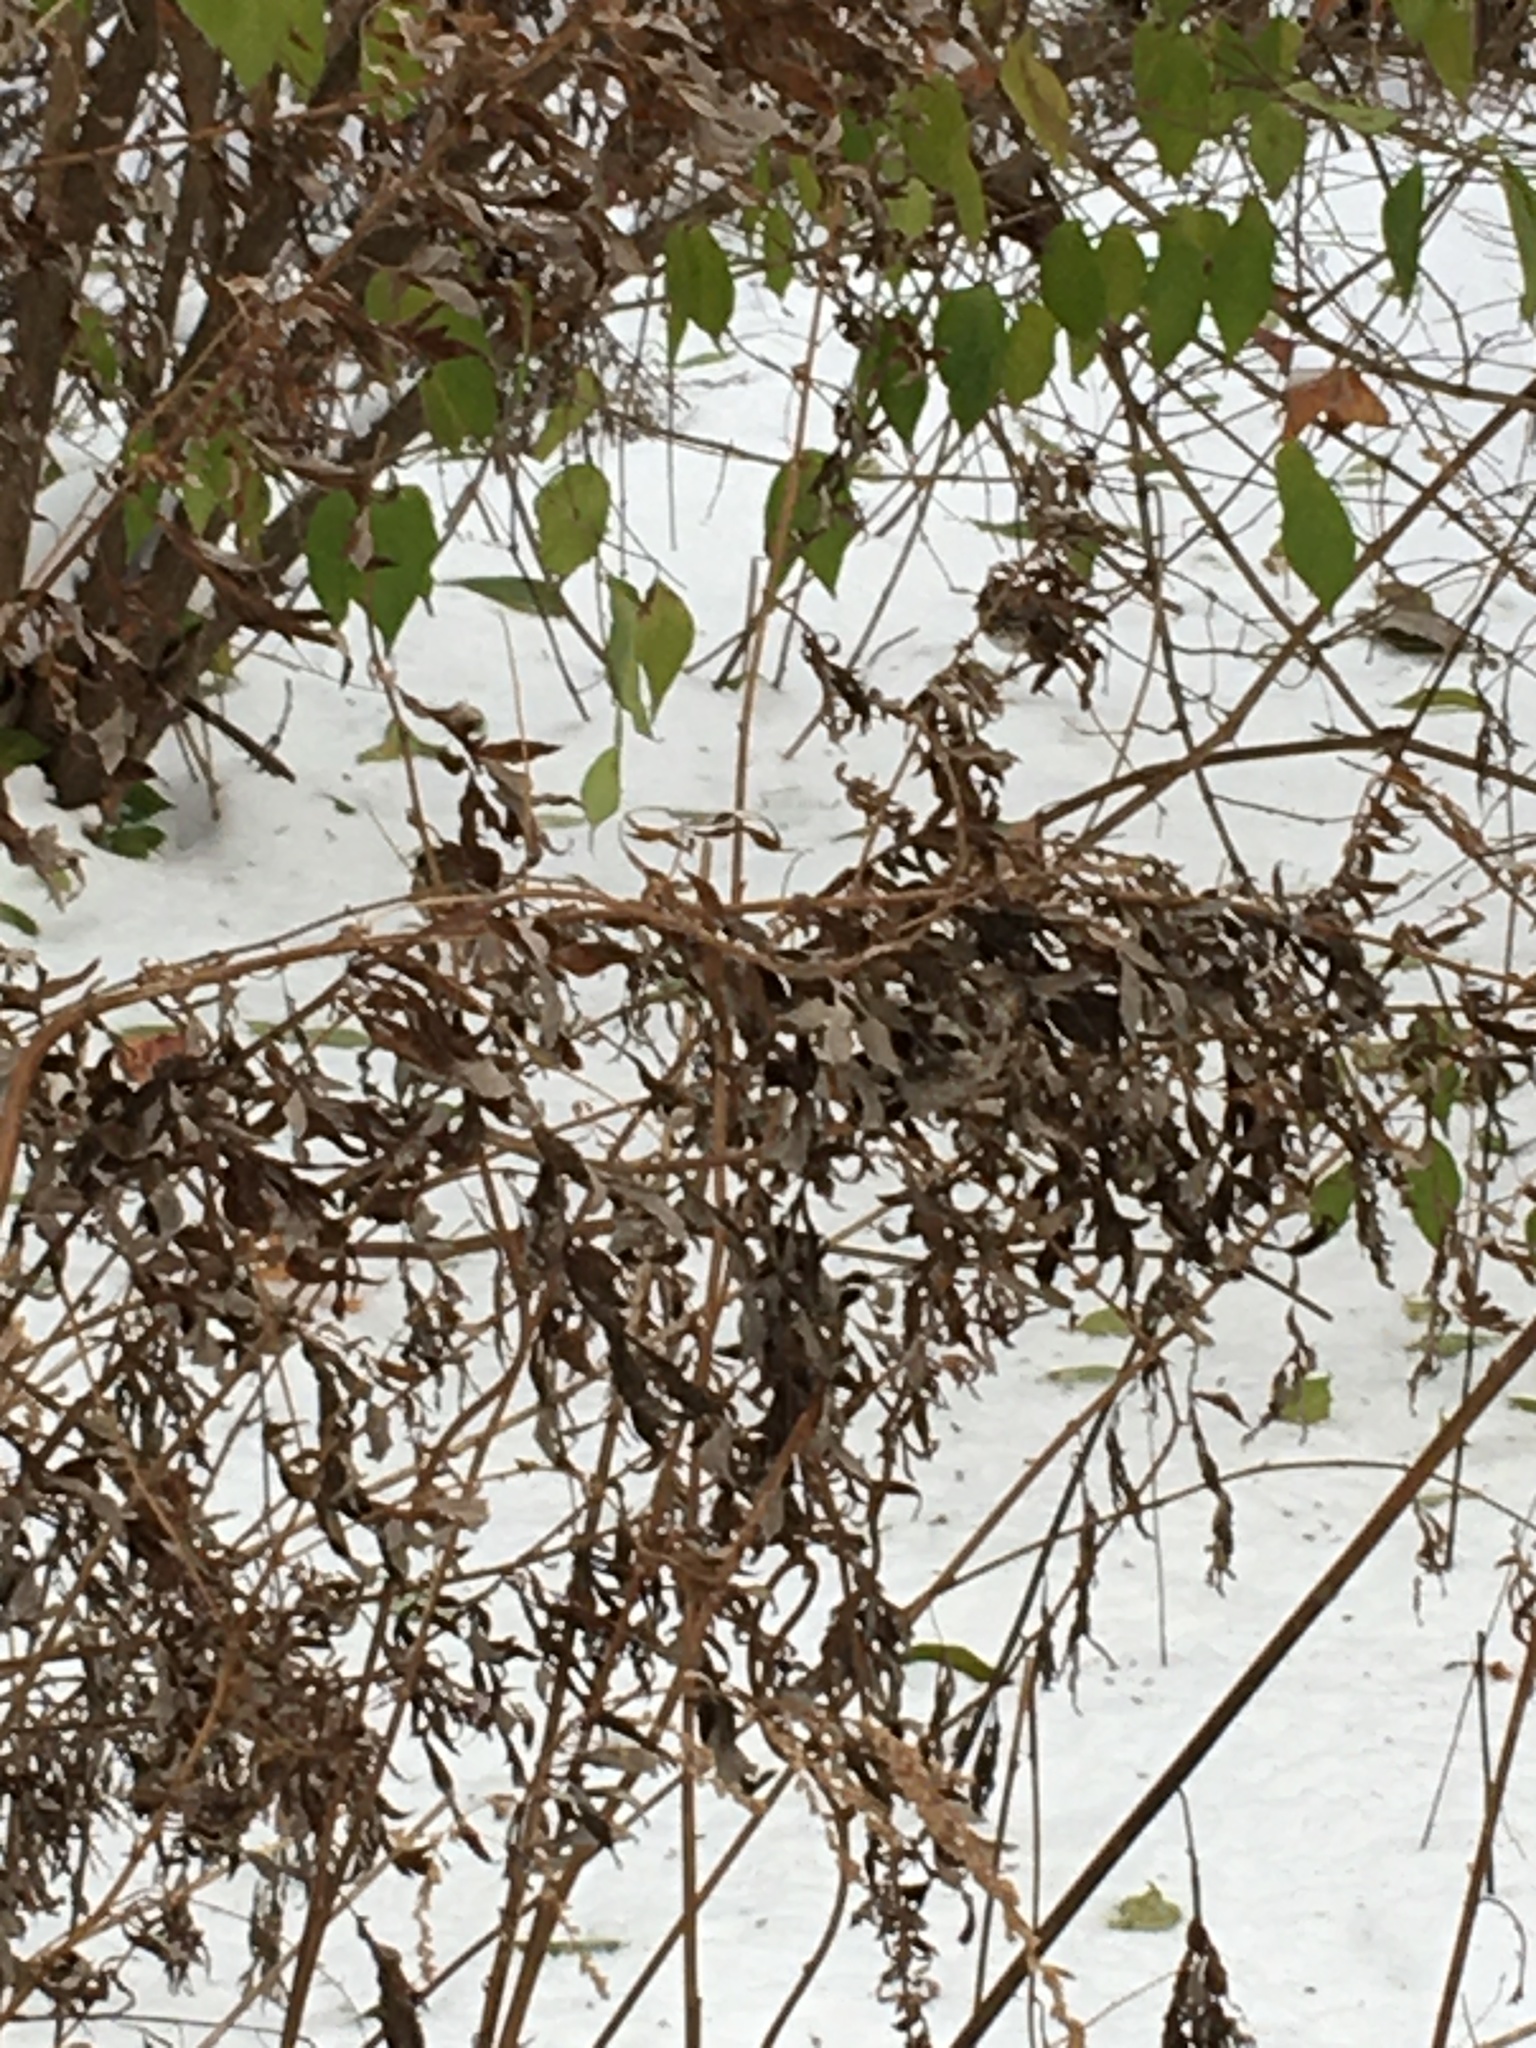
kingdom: Plantae
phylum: Tracheophyta
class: Magnoliopsida
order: Asterales
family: Asteraceae
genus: Artemisia
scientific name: Artemisia vulgaris
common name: Mugwort
